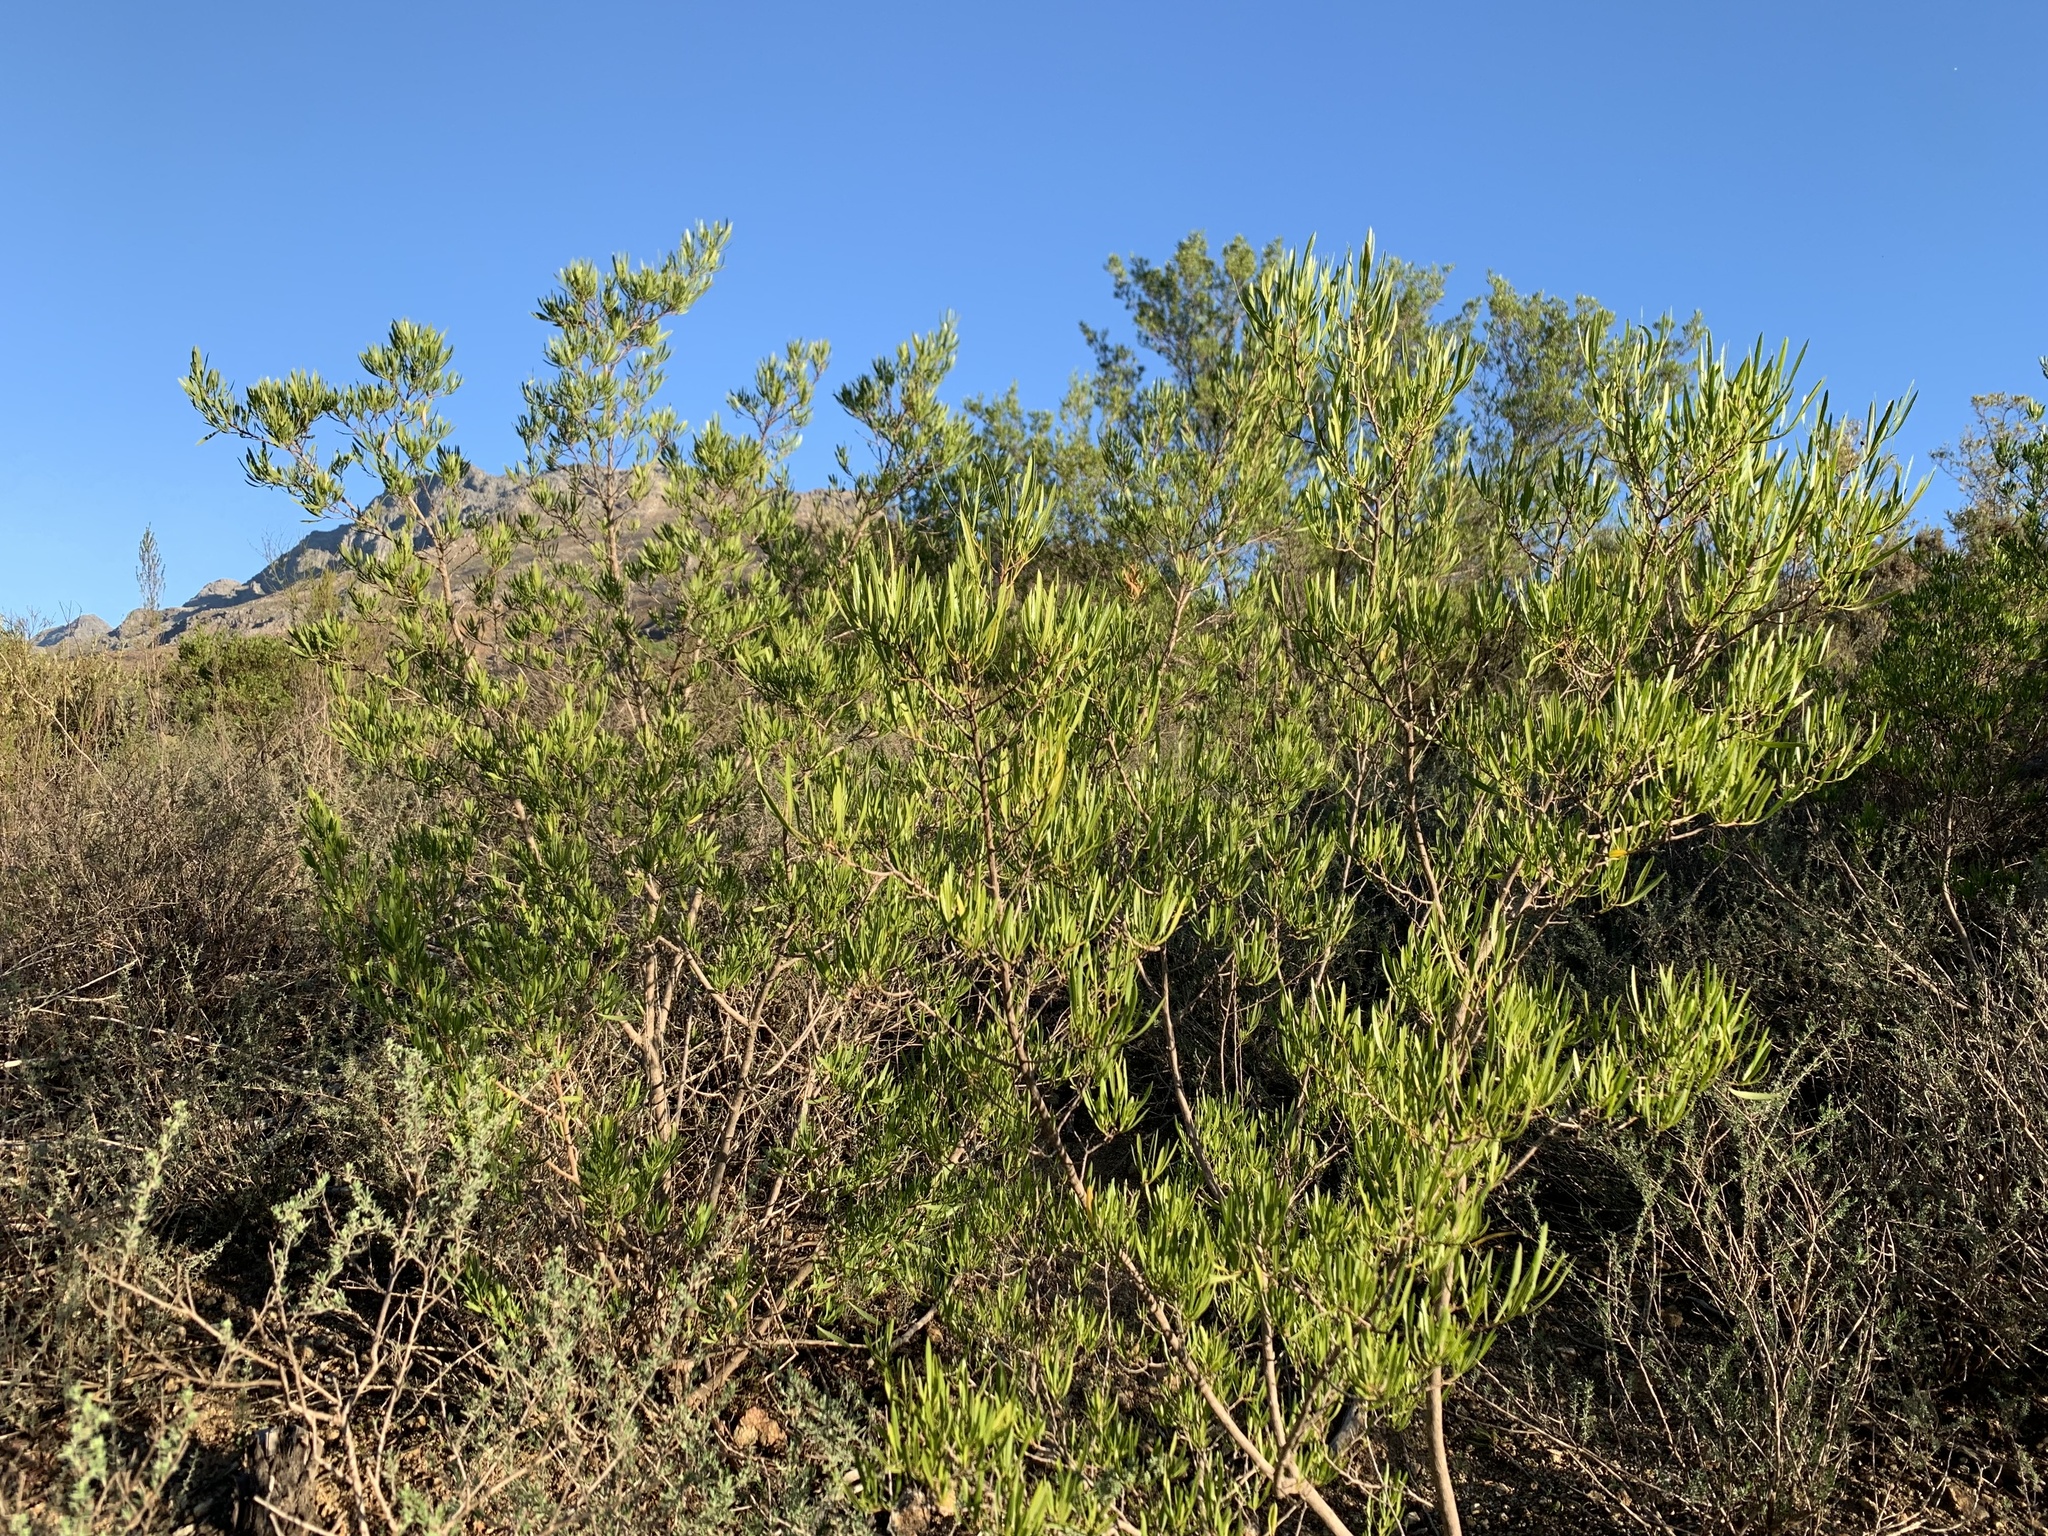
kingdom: Plantae
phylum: Tracheophyta
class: Magnoliopsida
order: Sapindales
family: Sapindaceae
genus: Dodonaea
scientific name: Dodonaea viscosa
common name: Hopbush
